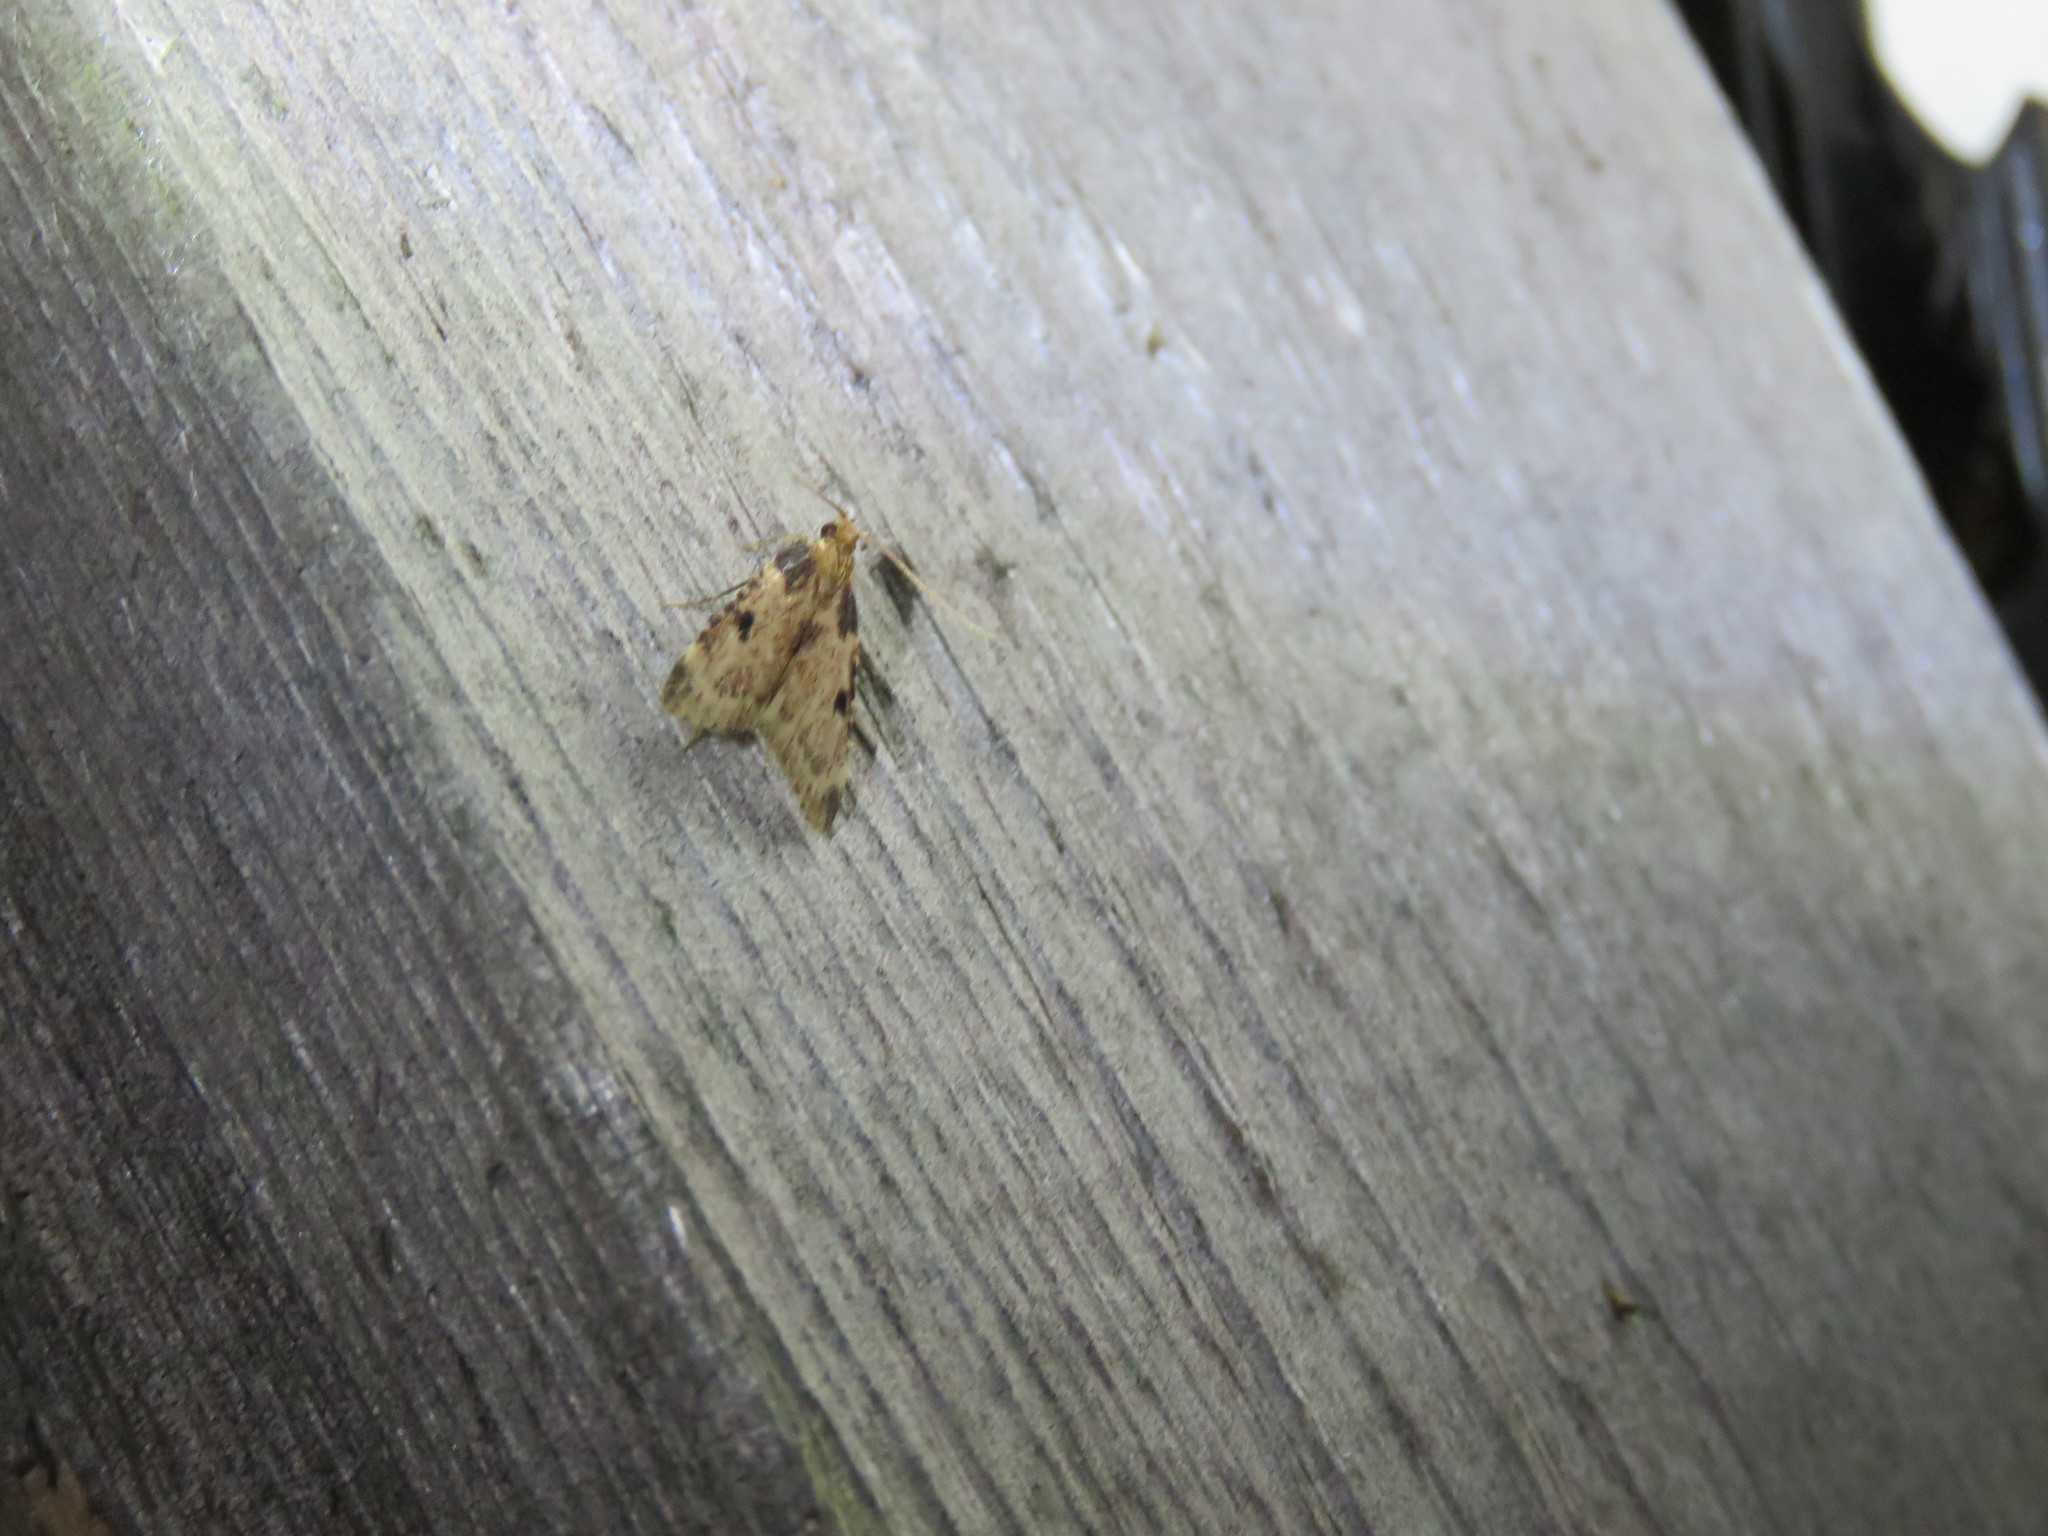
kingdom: Animalia
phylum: Arthropoda
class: Insecta
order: Lepidoptera
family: Pyralidae
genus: Aglossa
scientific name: Aglossa costiferalis
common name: Calico pyralid moth
